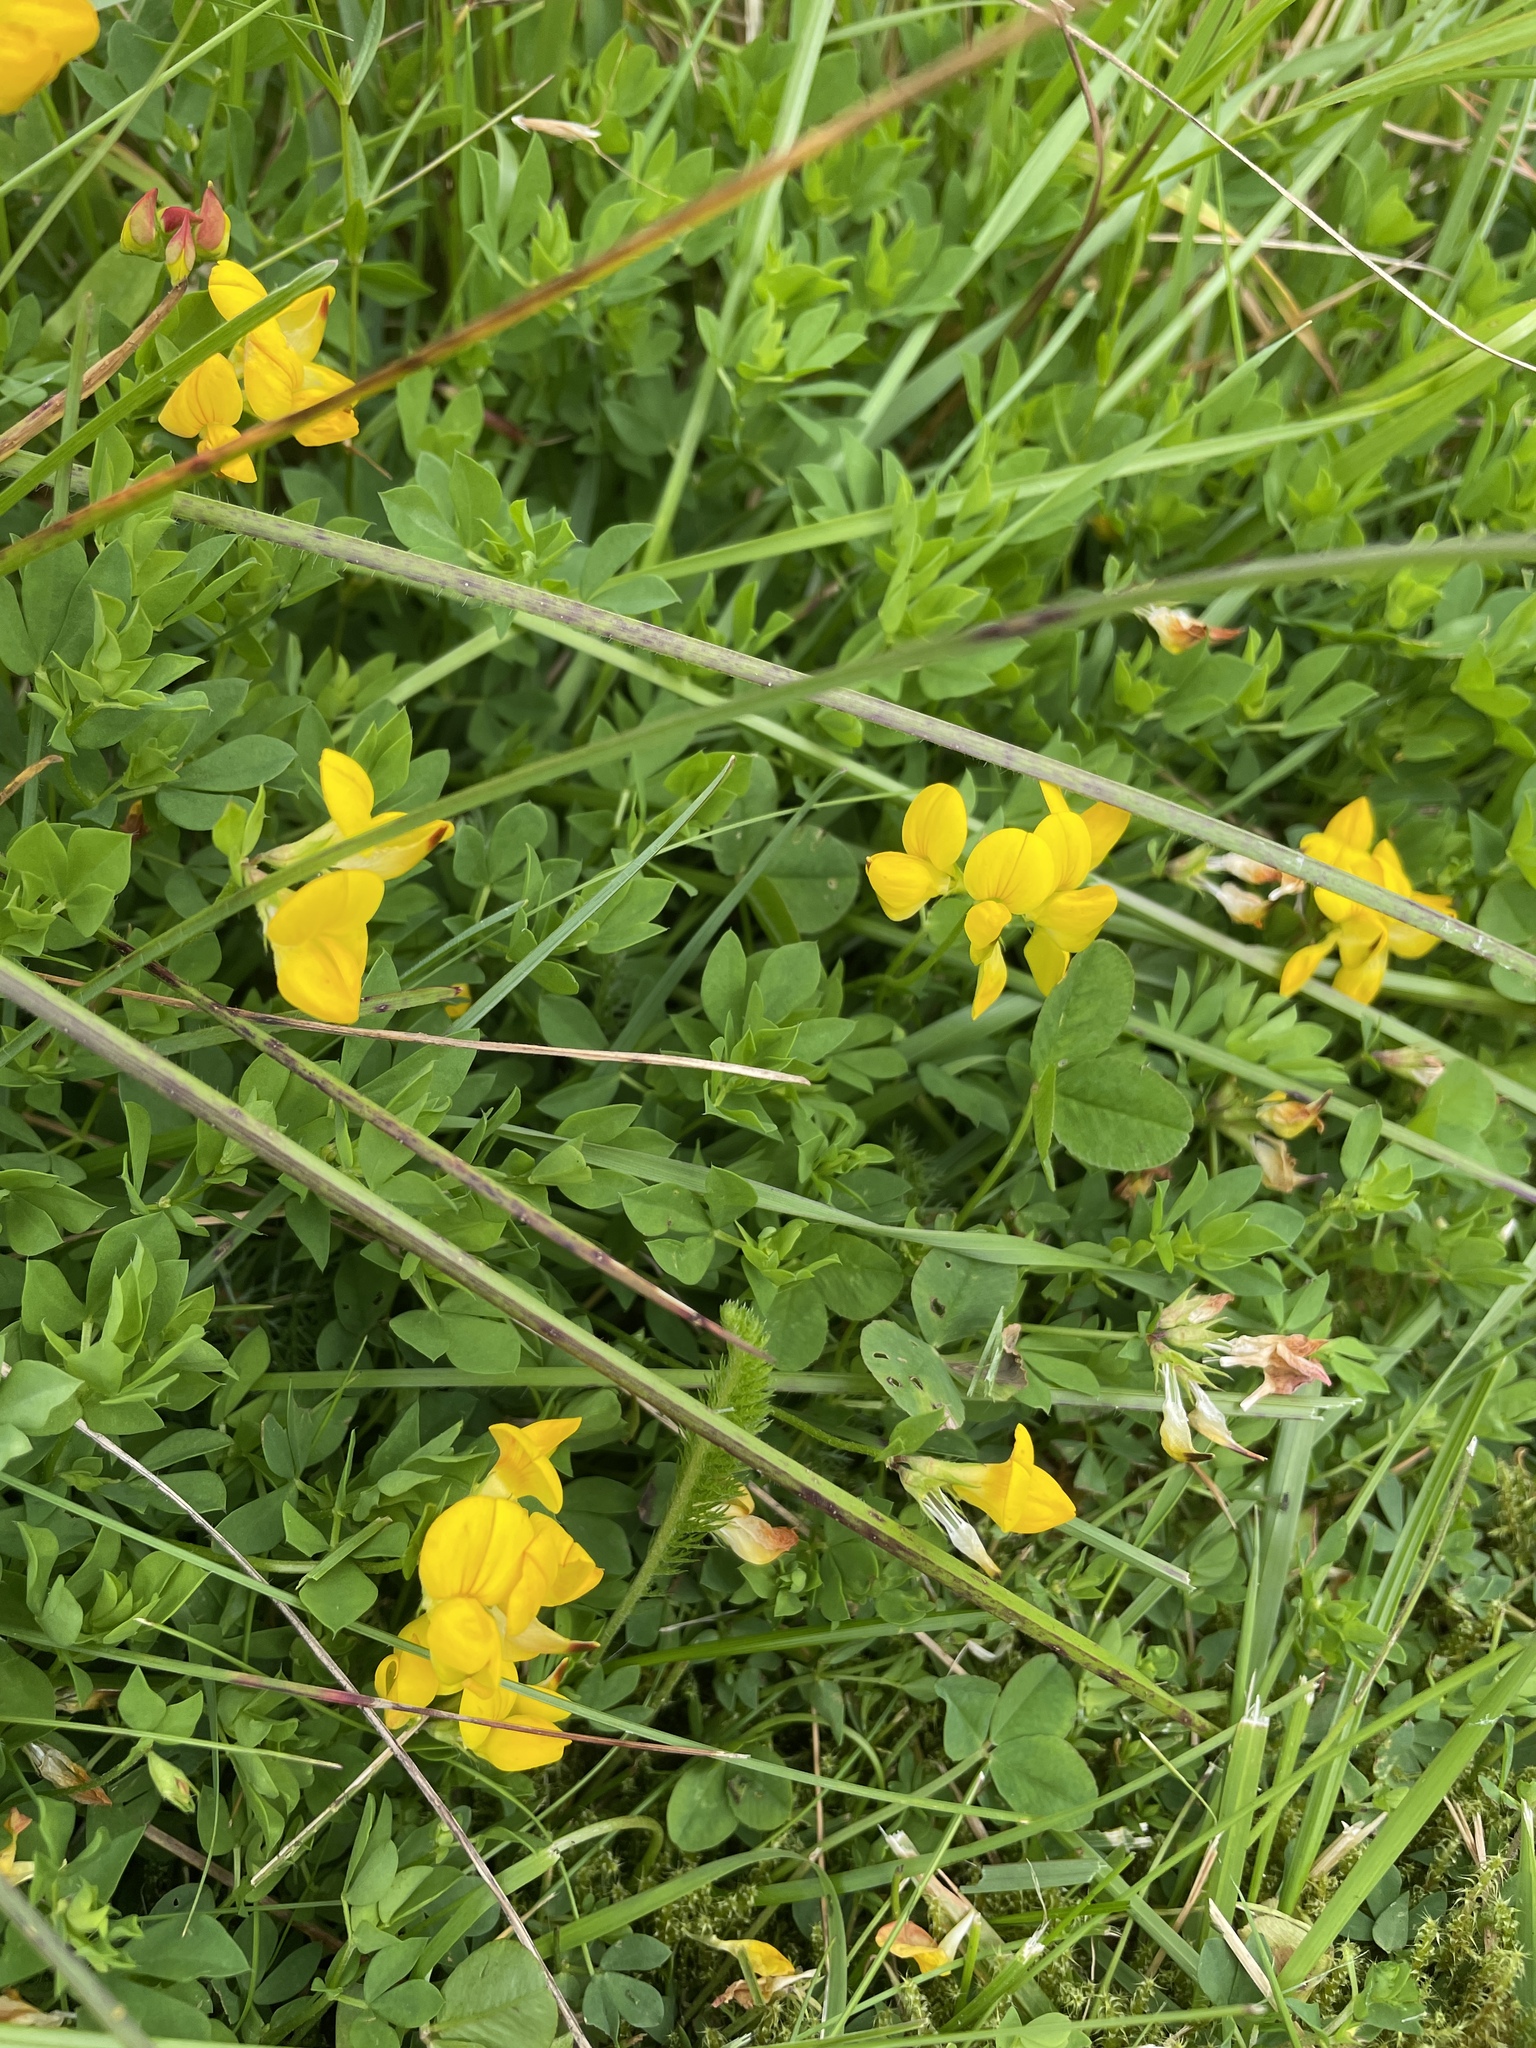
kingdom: Plantae
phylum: Tracheophyta
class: Magnoliopsida
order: Fabales
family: Fabaceae
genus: Lotus
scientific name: Lotus corniculatus
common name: Common bird's-foot-trefoil
